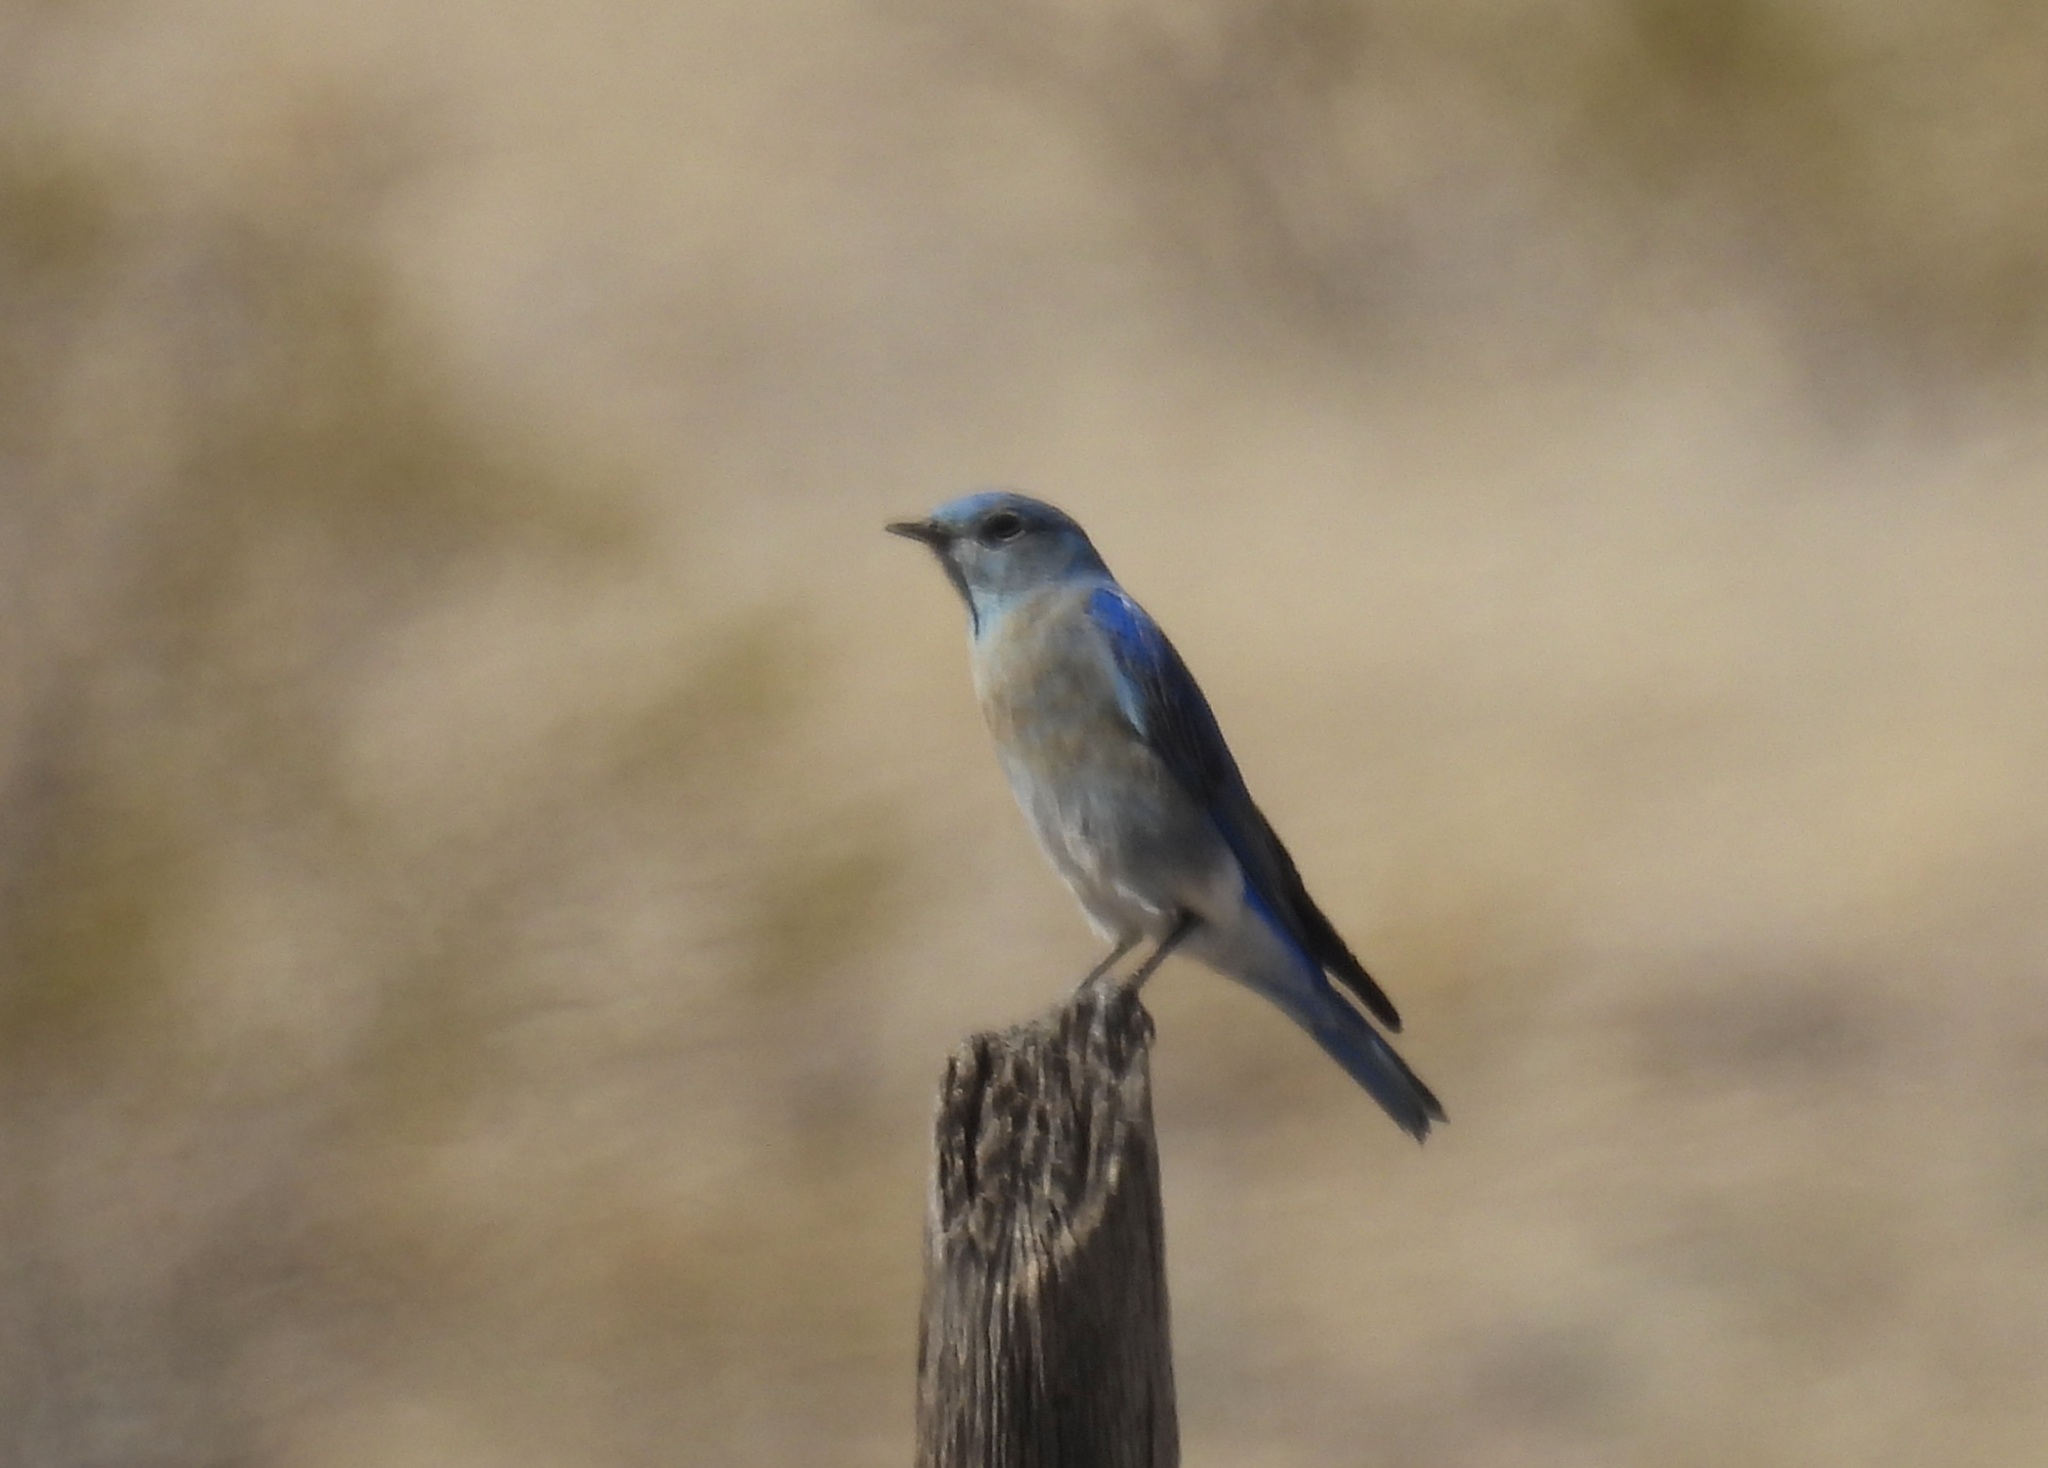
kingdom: Animalia
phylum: Chordata
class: Aves
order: Passeriformes
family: Turdidae
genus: Sialia
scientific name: Sialia currucoides
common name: Mountain bluebird
